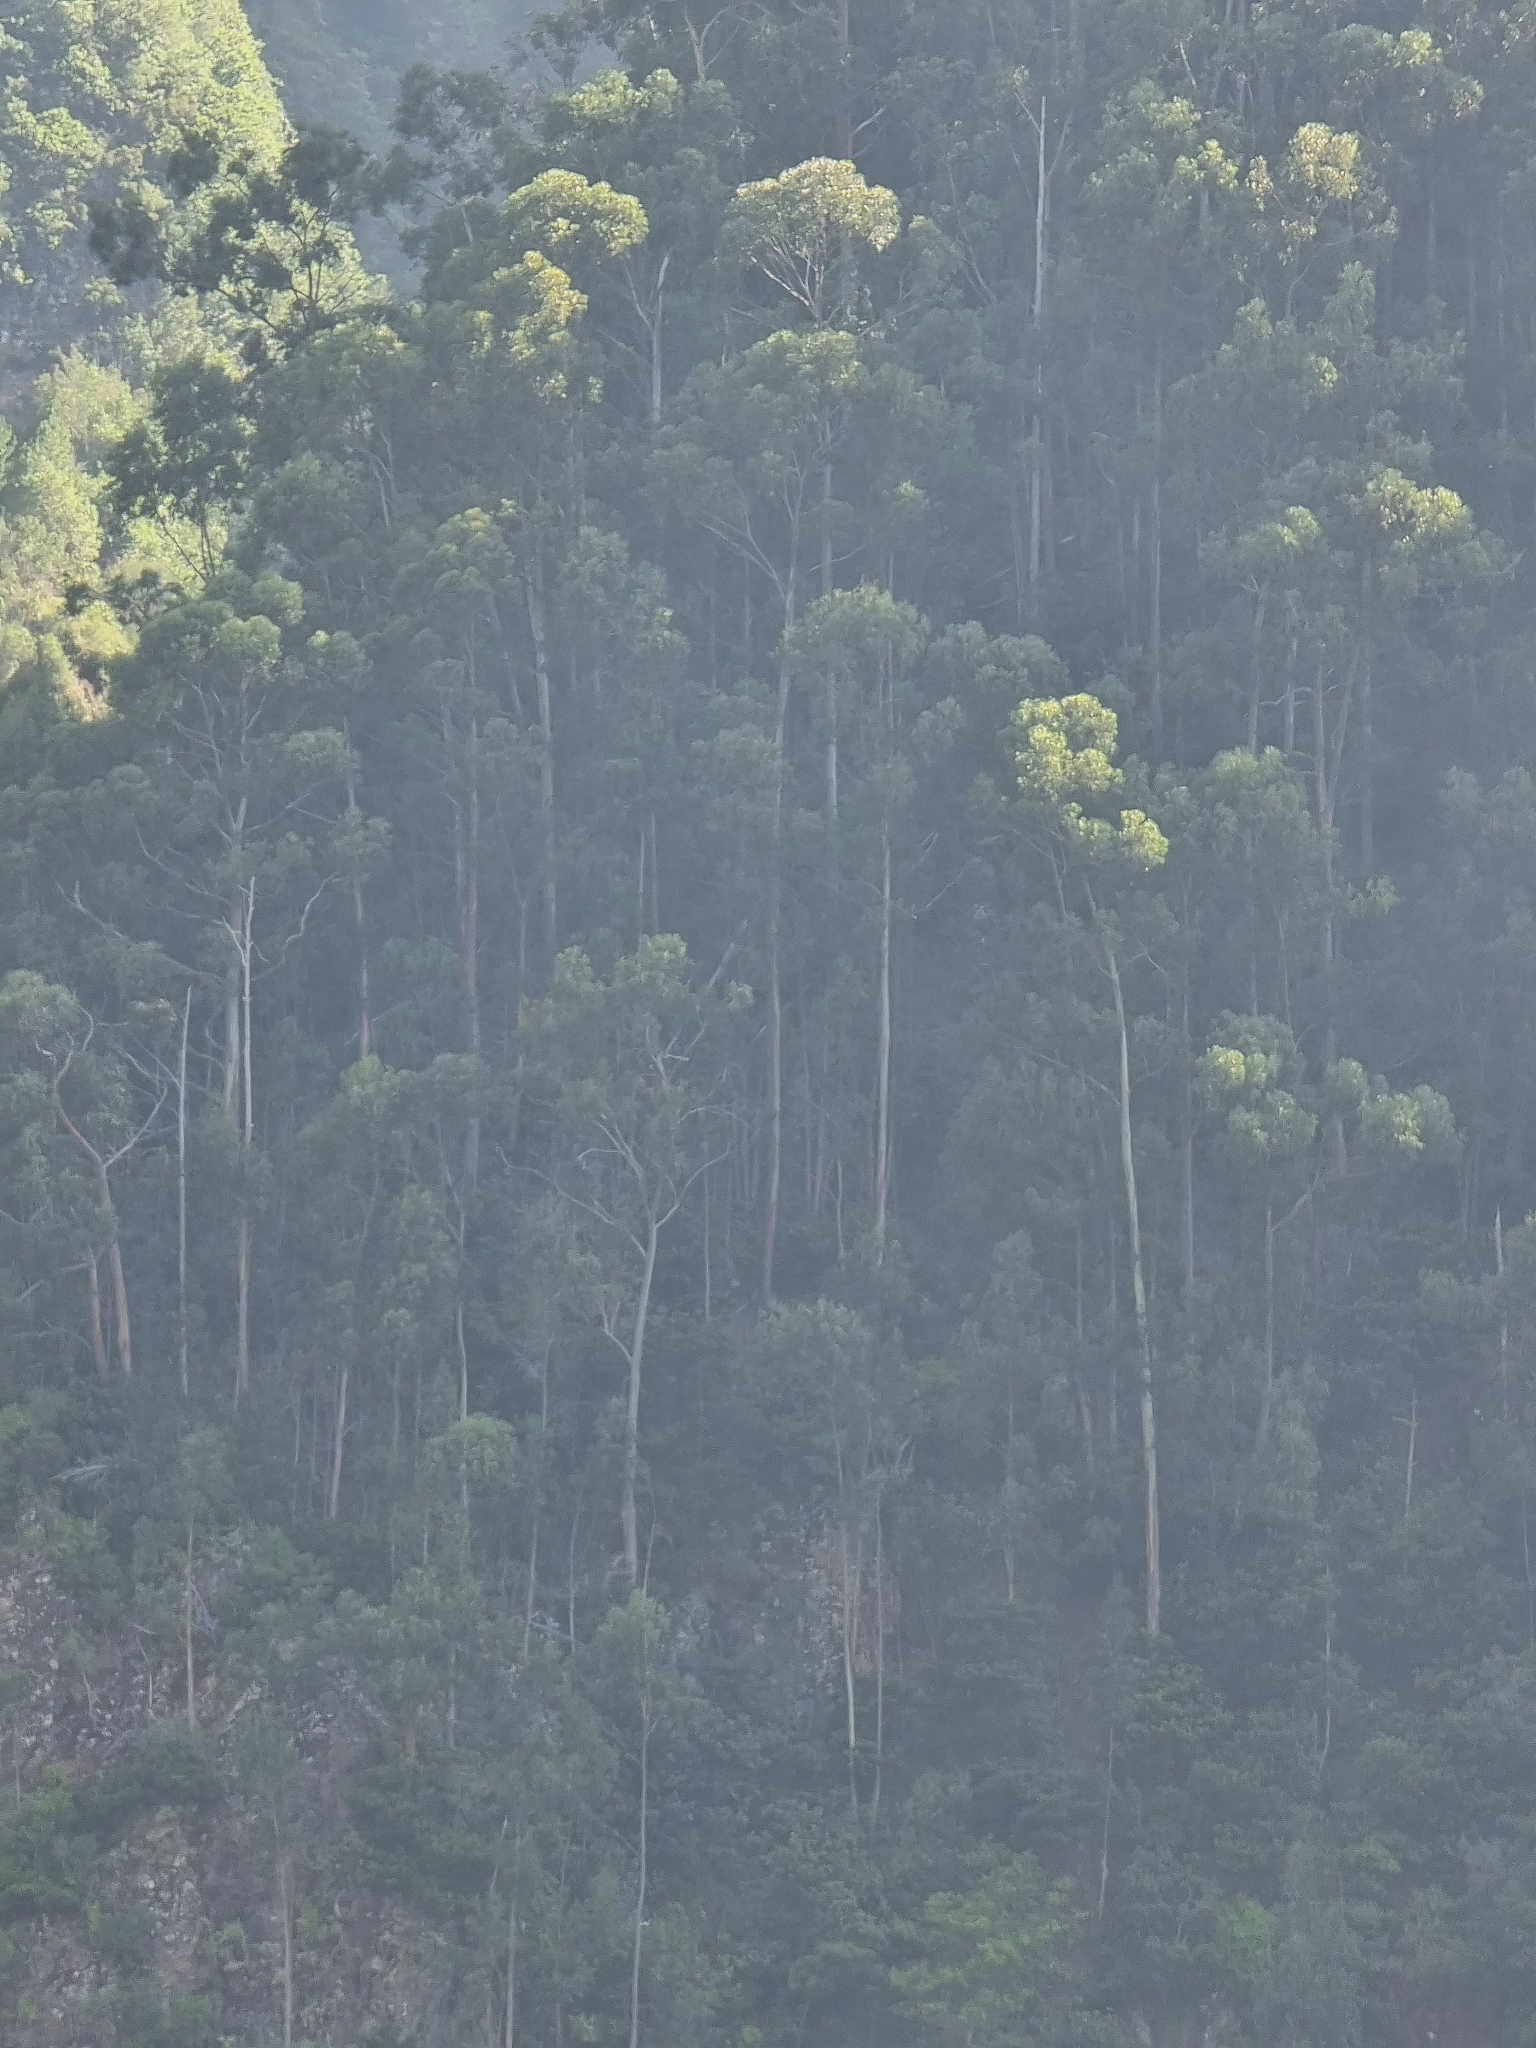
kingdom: Plantae
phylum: Tracheophyta
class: Magnoliopsida
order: Myrtales
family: Myrtaceae
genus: Eucalyptus
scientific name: Eucalyptus globulus
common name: Southern blue-gum
